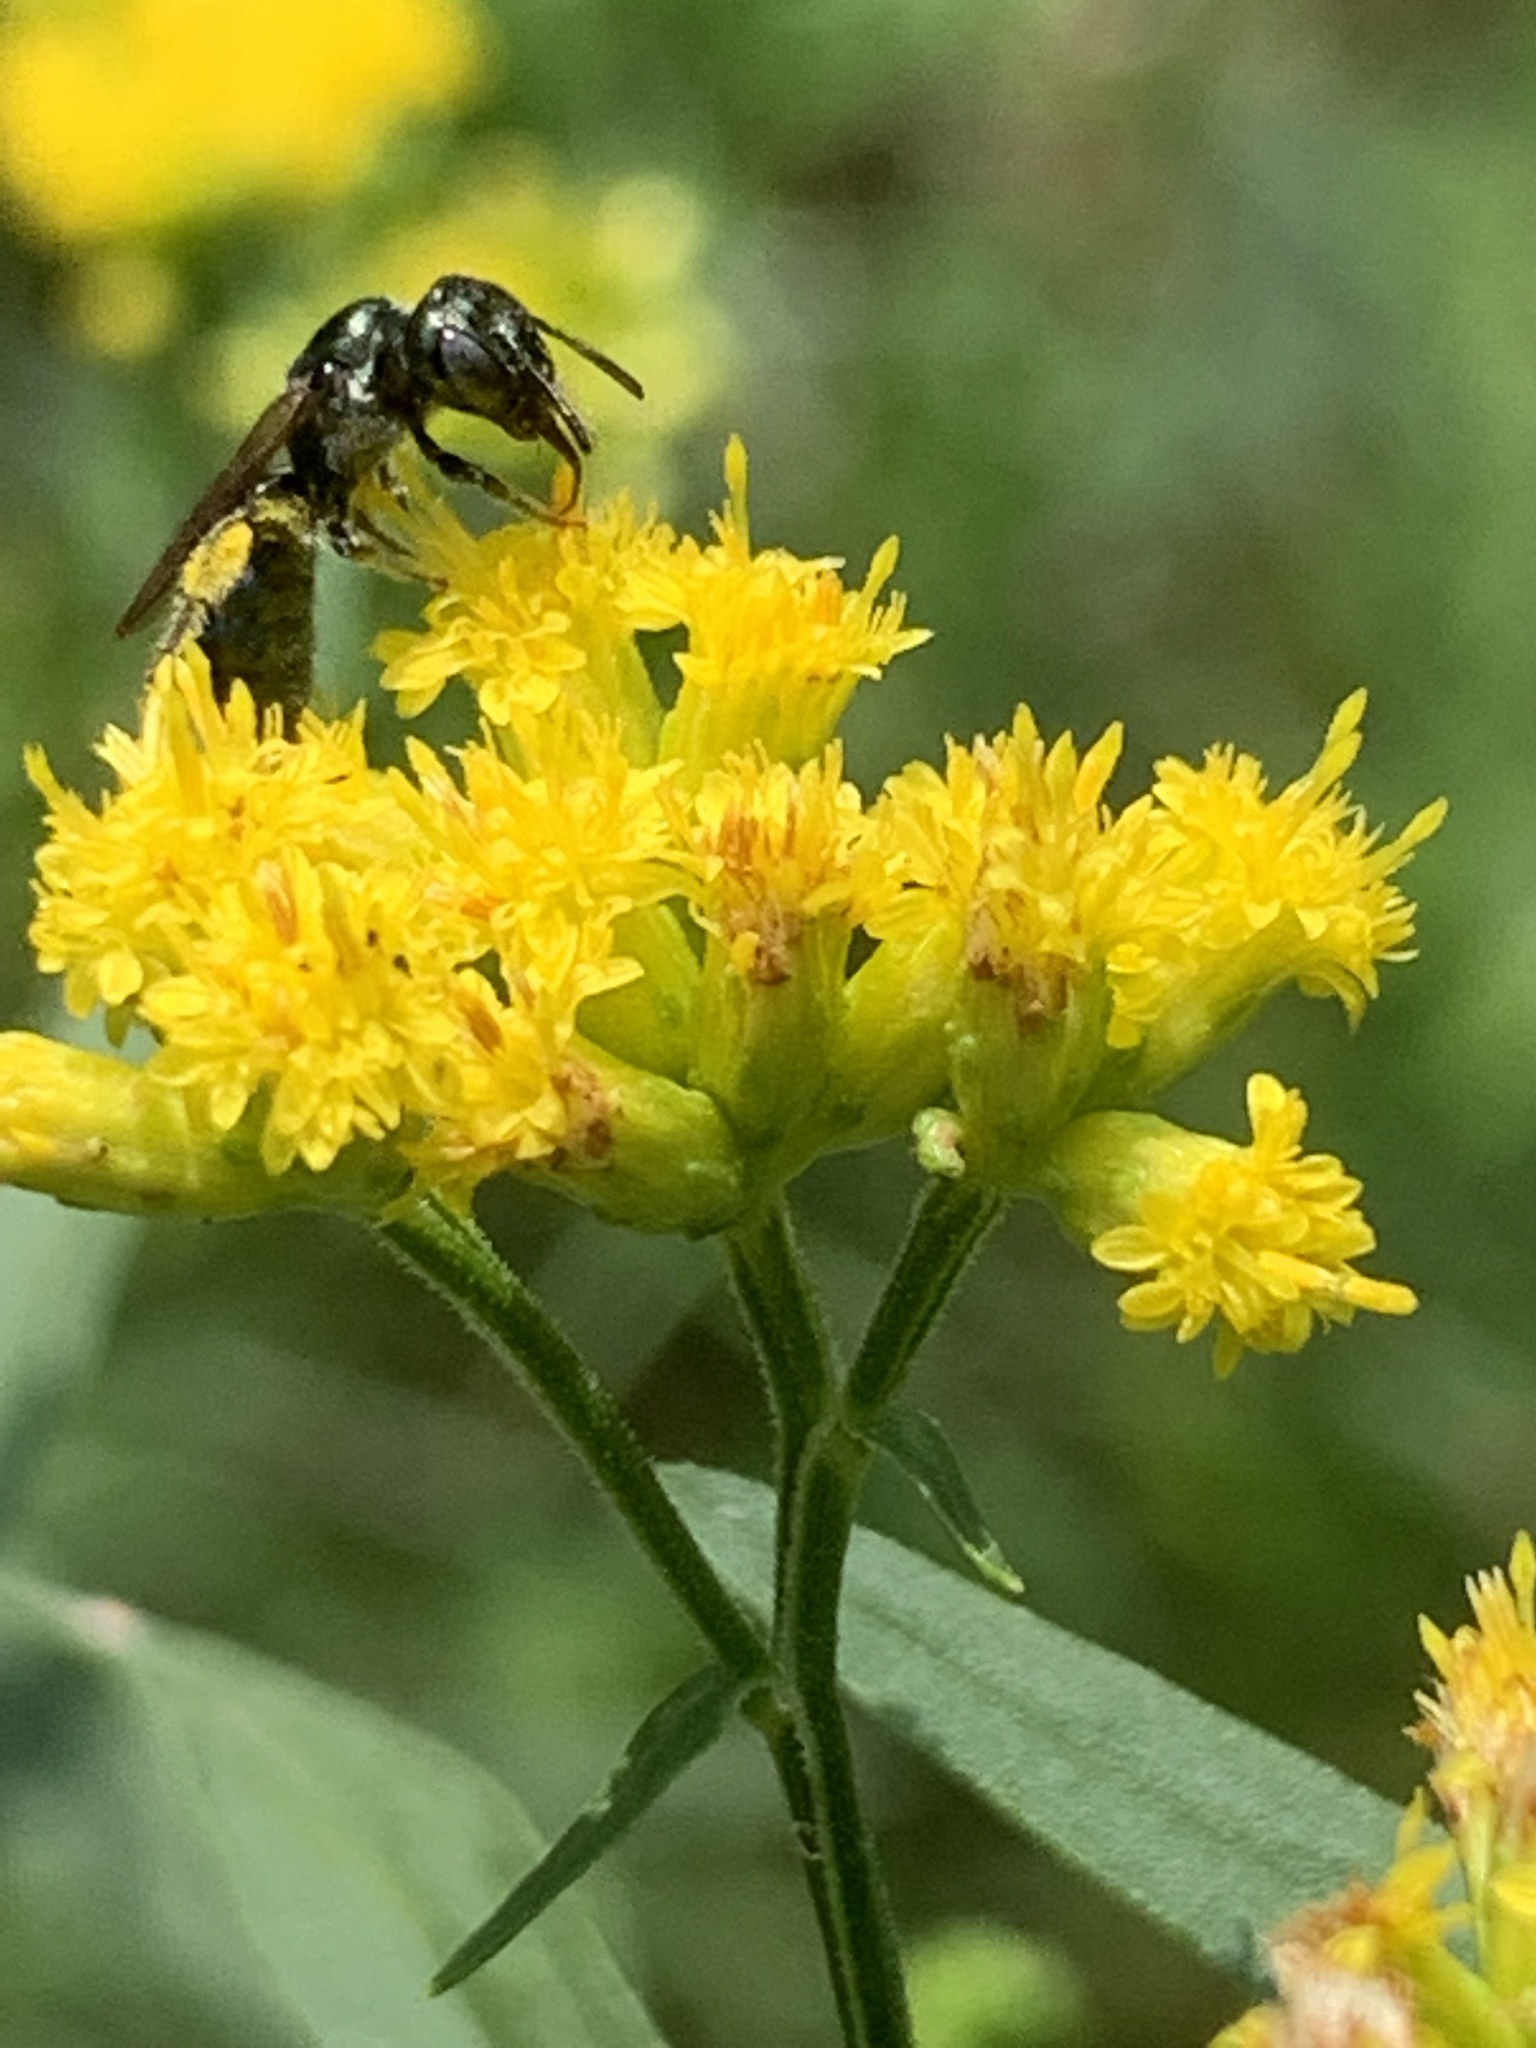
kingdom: Animalia
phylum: Arthropoda
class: Insecta
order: Hymenoptera
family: Apidae
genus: Zadontomerus
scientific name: Zadontomerus
